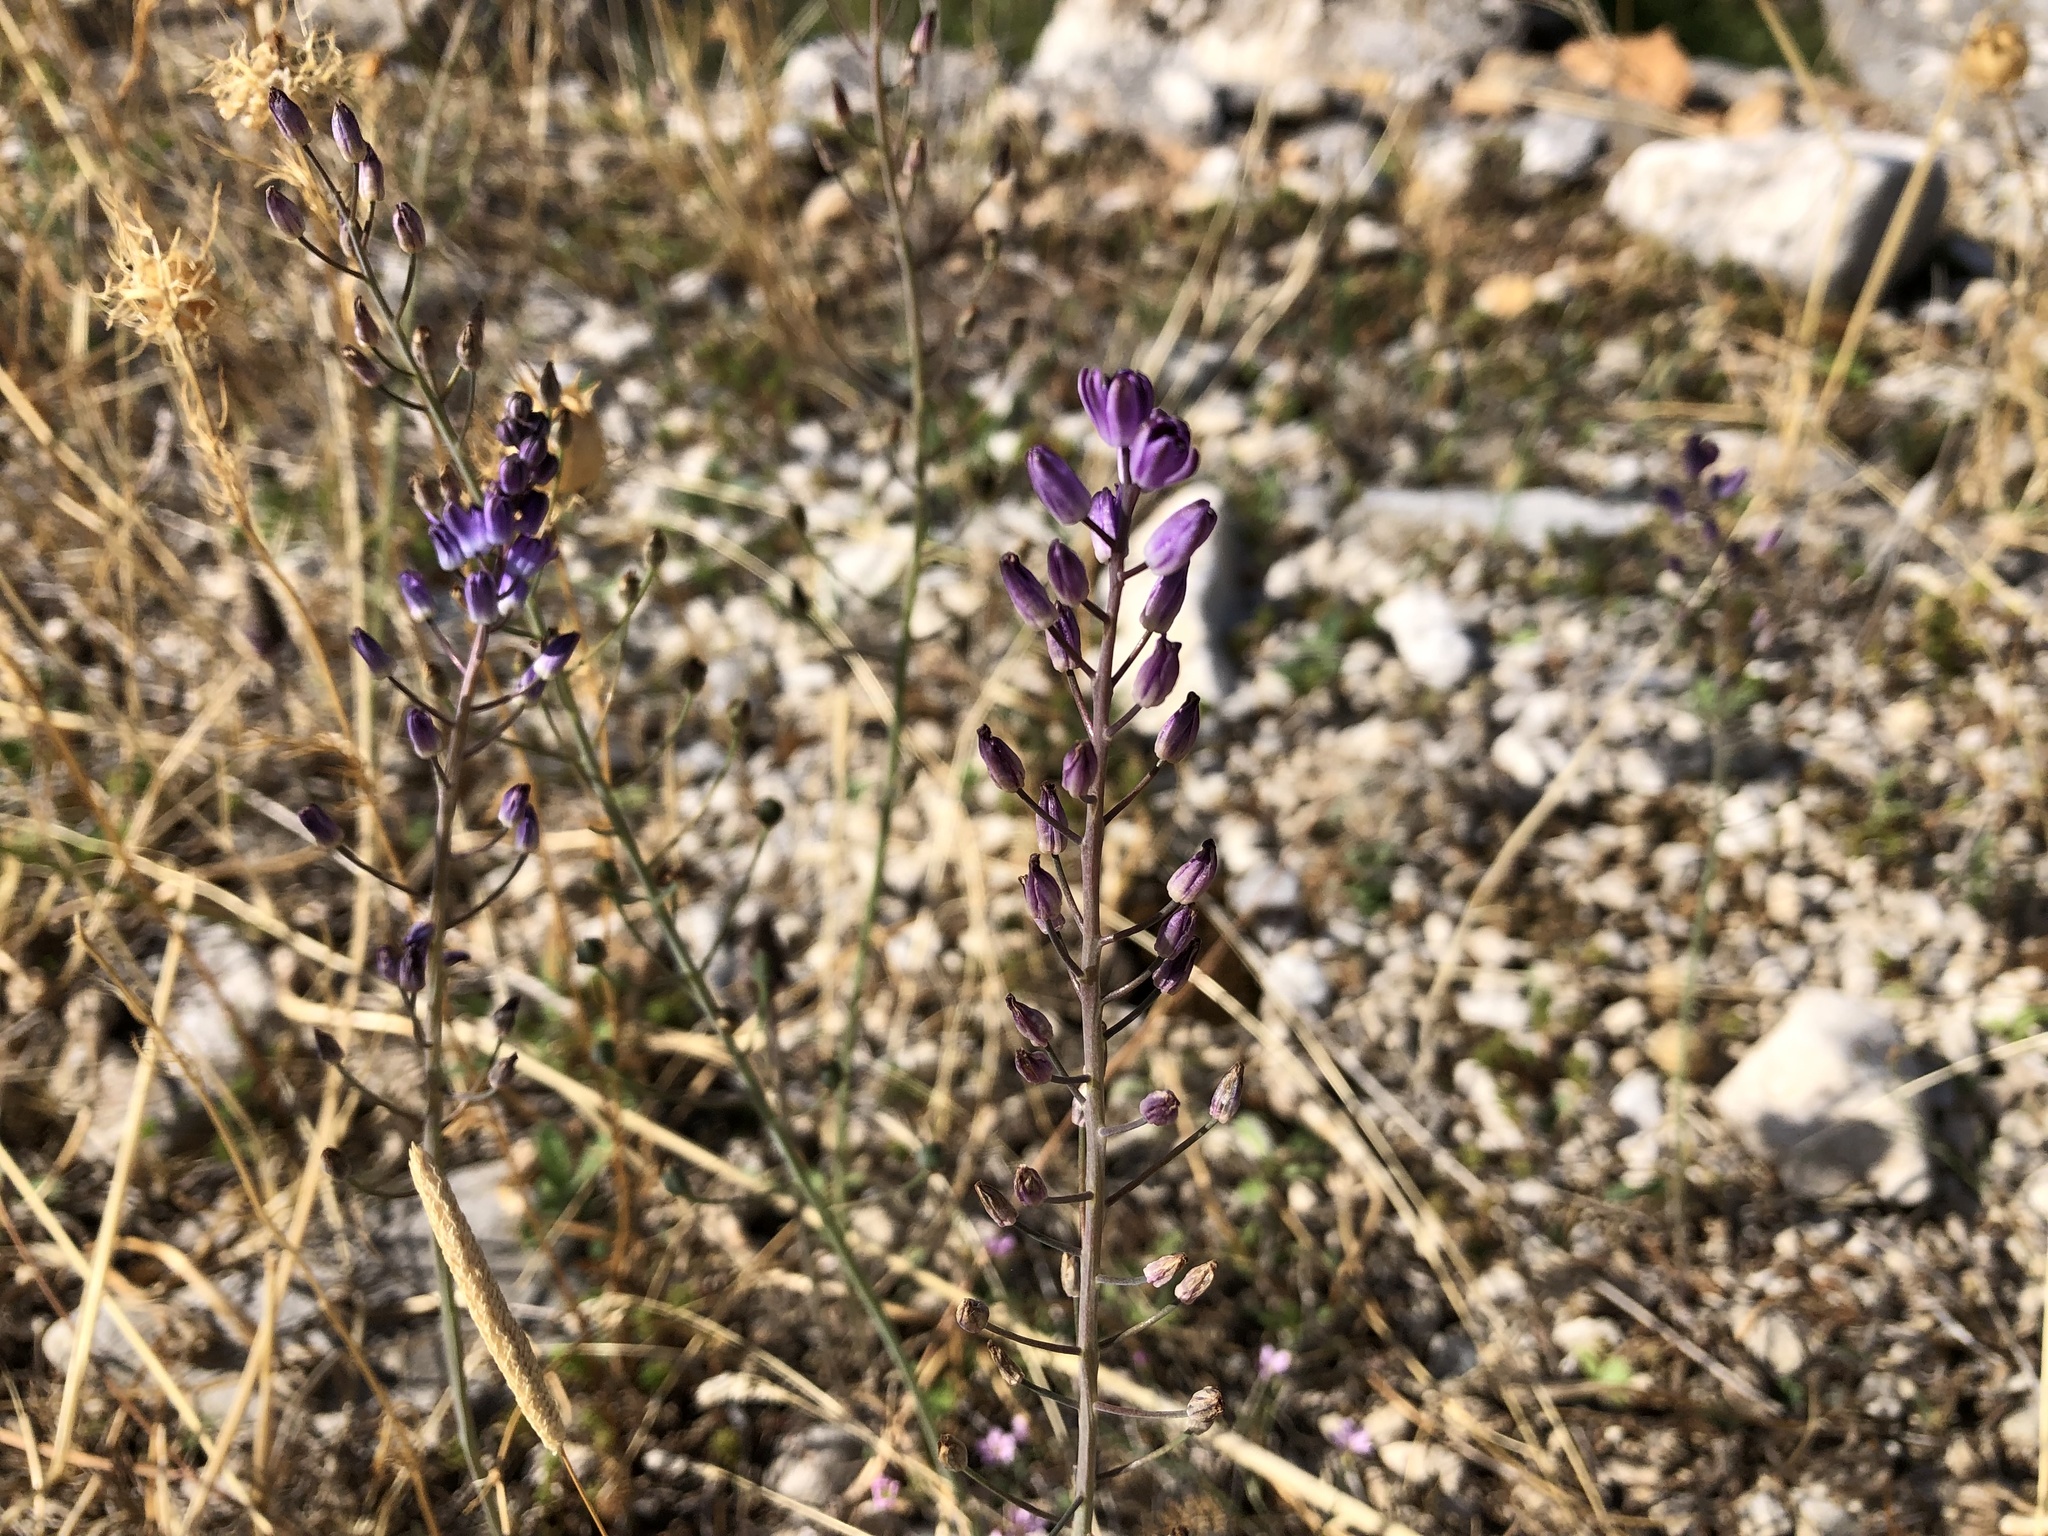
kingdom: Plantae
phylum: Tracheophyta
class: Liliopsida
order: Asparagales
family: Asparagaceae
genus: Prospero
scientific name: Prospero autumnale
